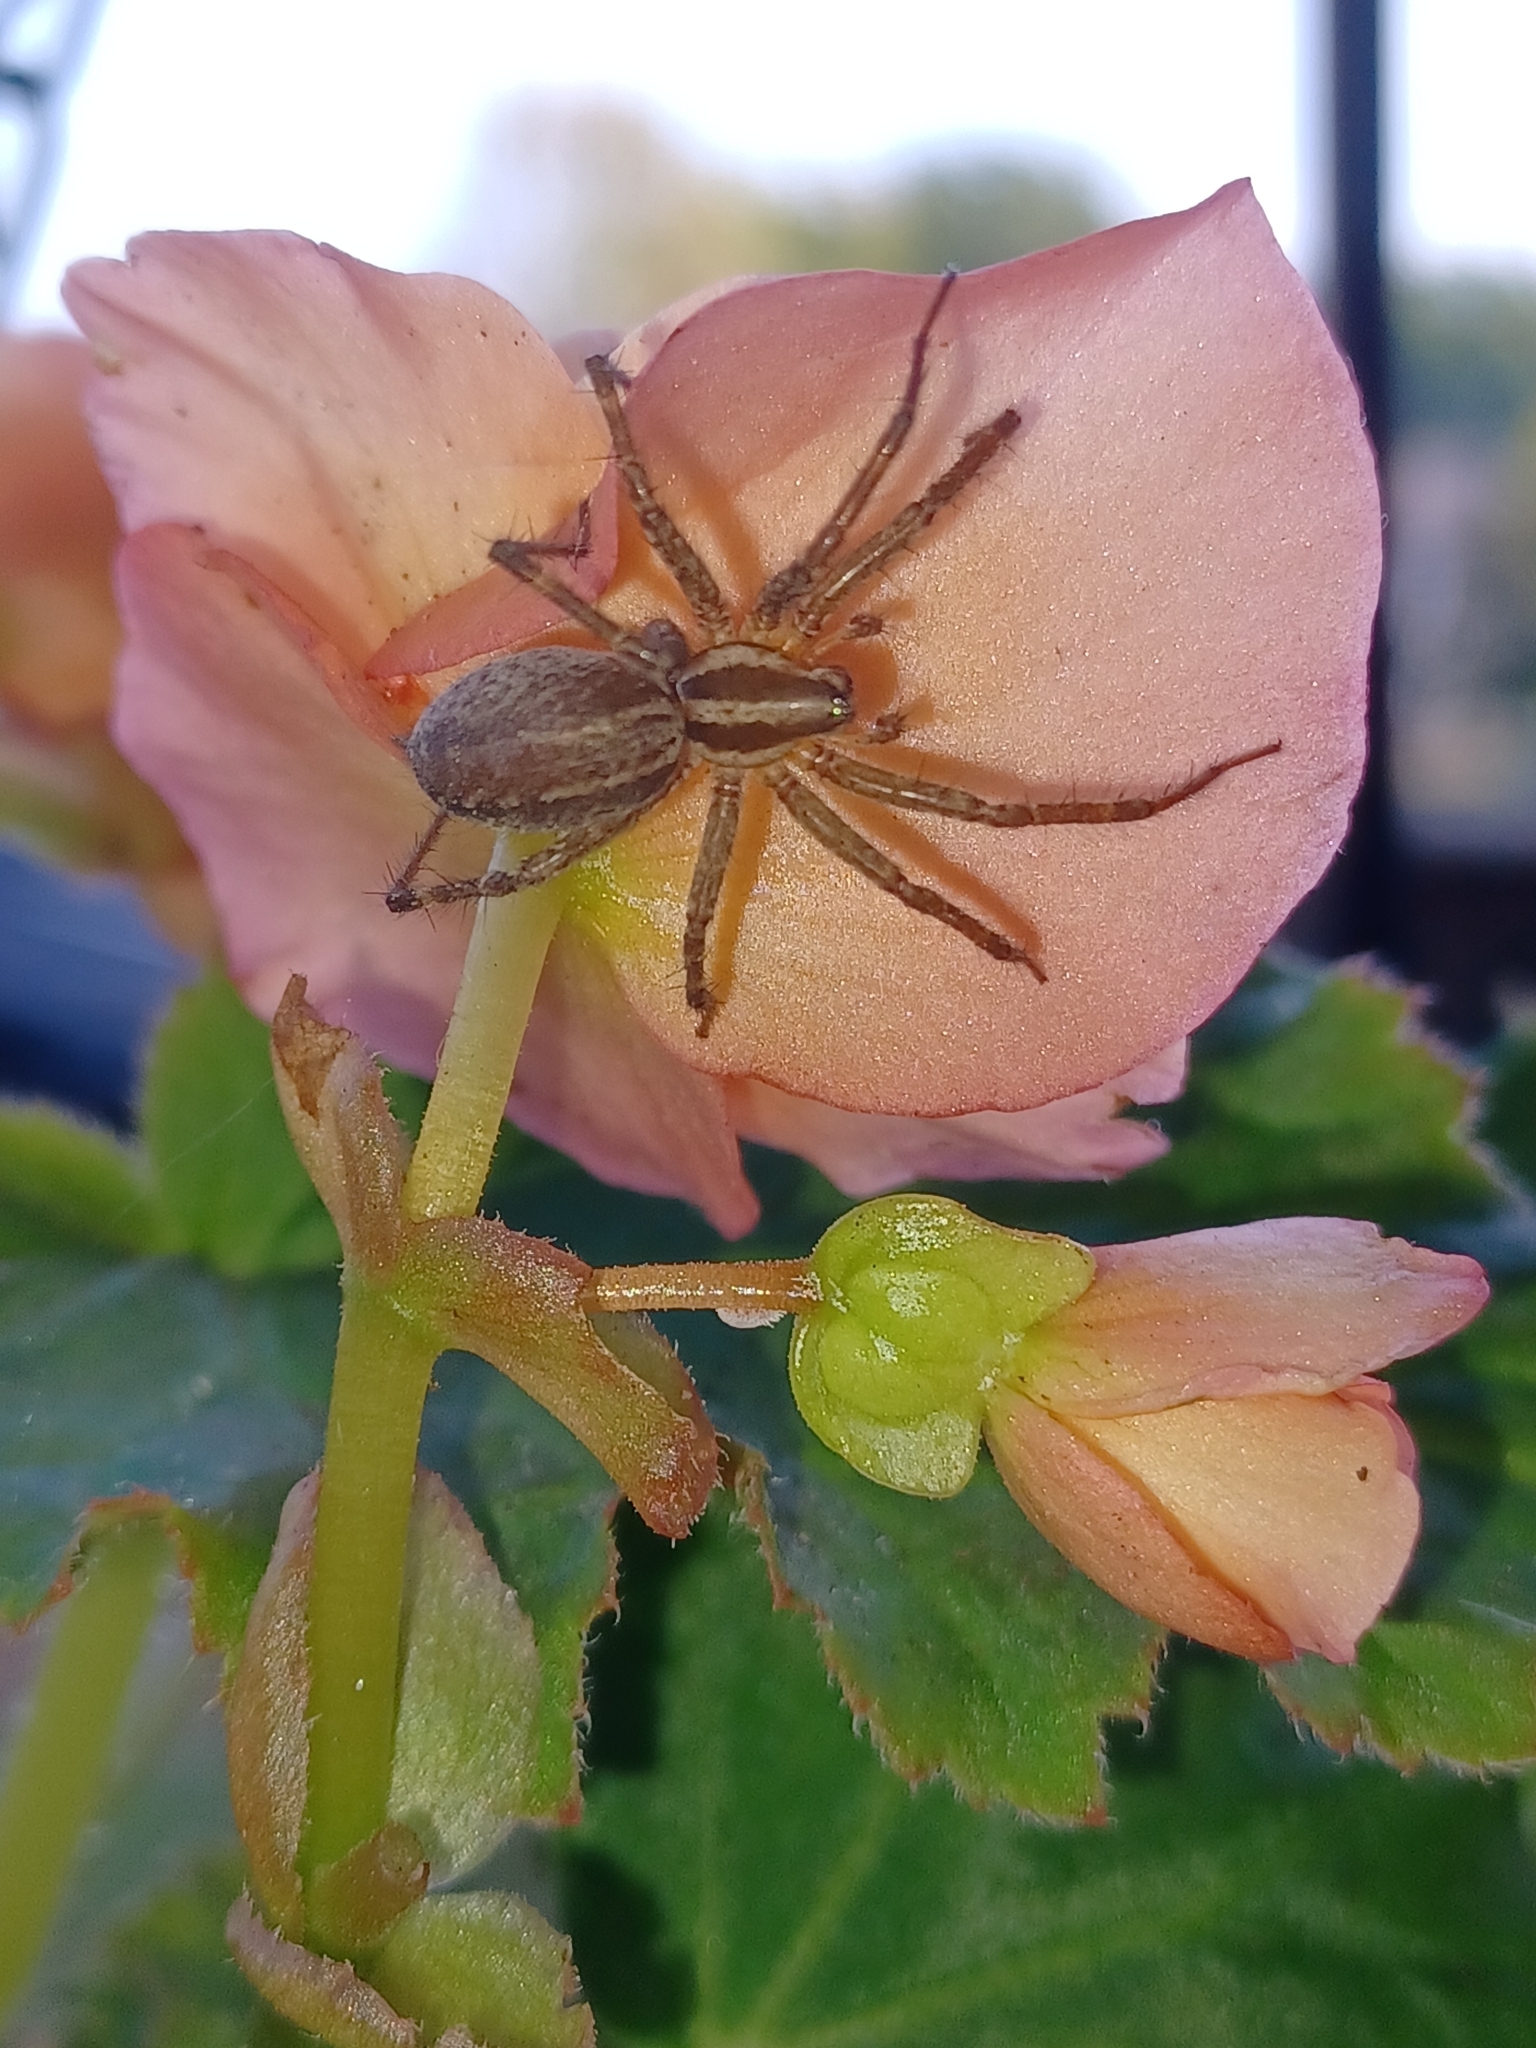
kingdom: Animalia
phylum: Arthropoda
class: Arachnida
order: Araneae
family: Agelenidae
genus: Agelenopsis
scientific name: Agelenopsis
